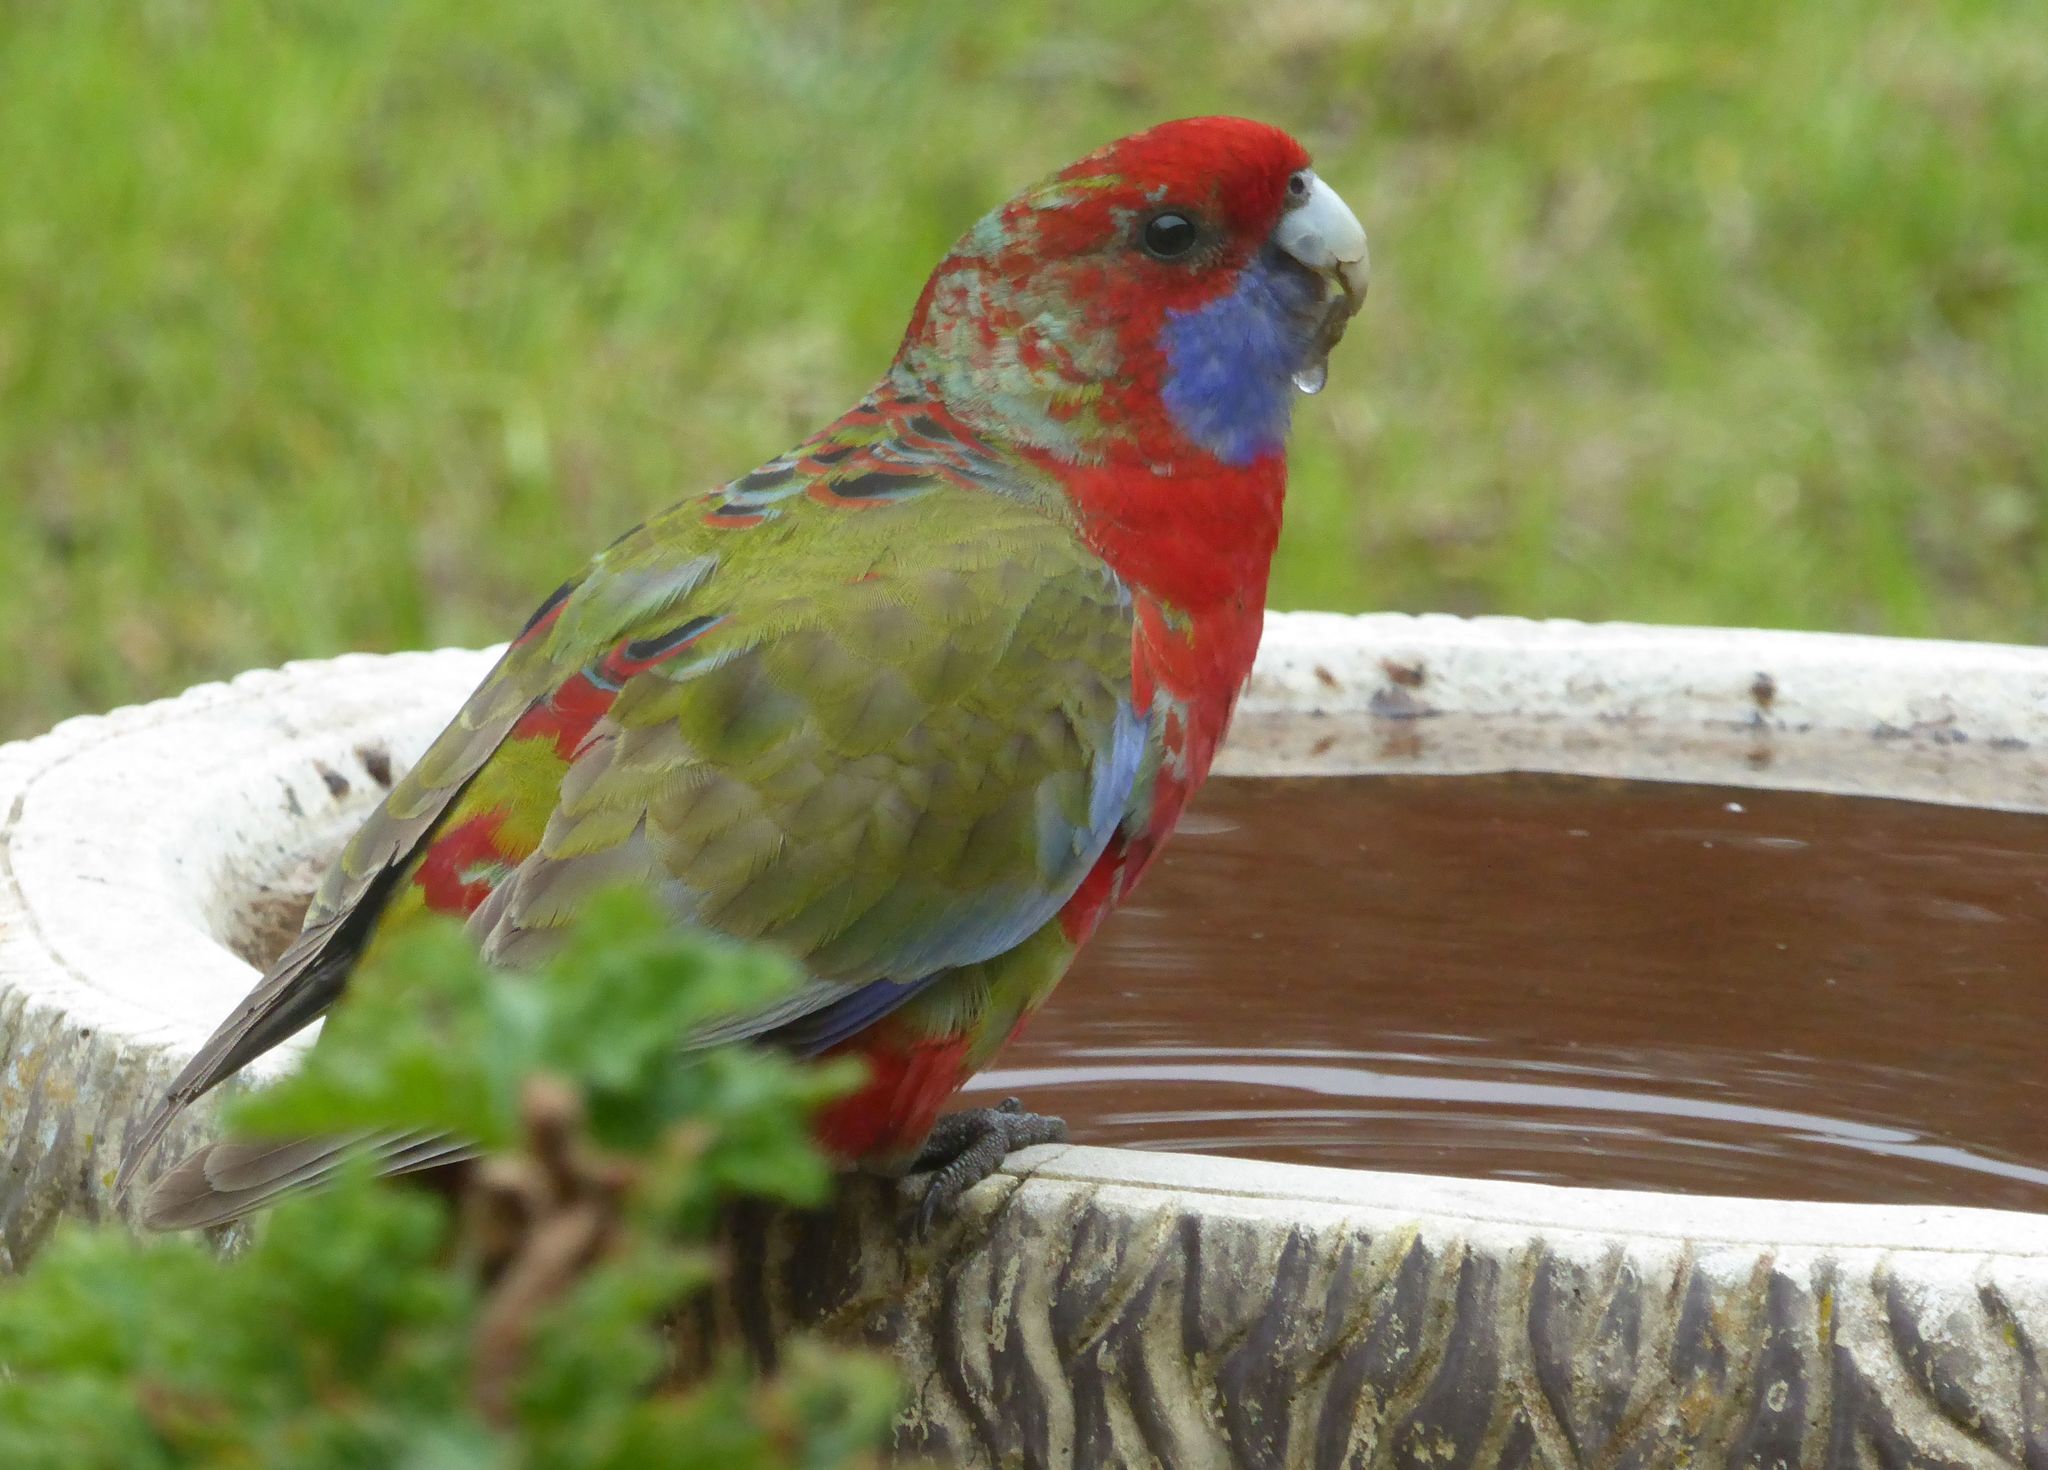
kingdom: Animalia
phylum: Chordata
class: Aves
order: Psittaciformes
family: Psittacidae
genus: Platycercus
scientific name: Platycercus elegans
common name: Crimson rosella
